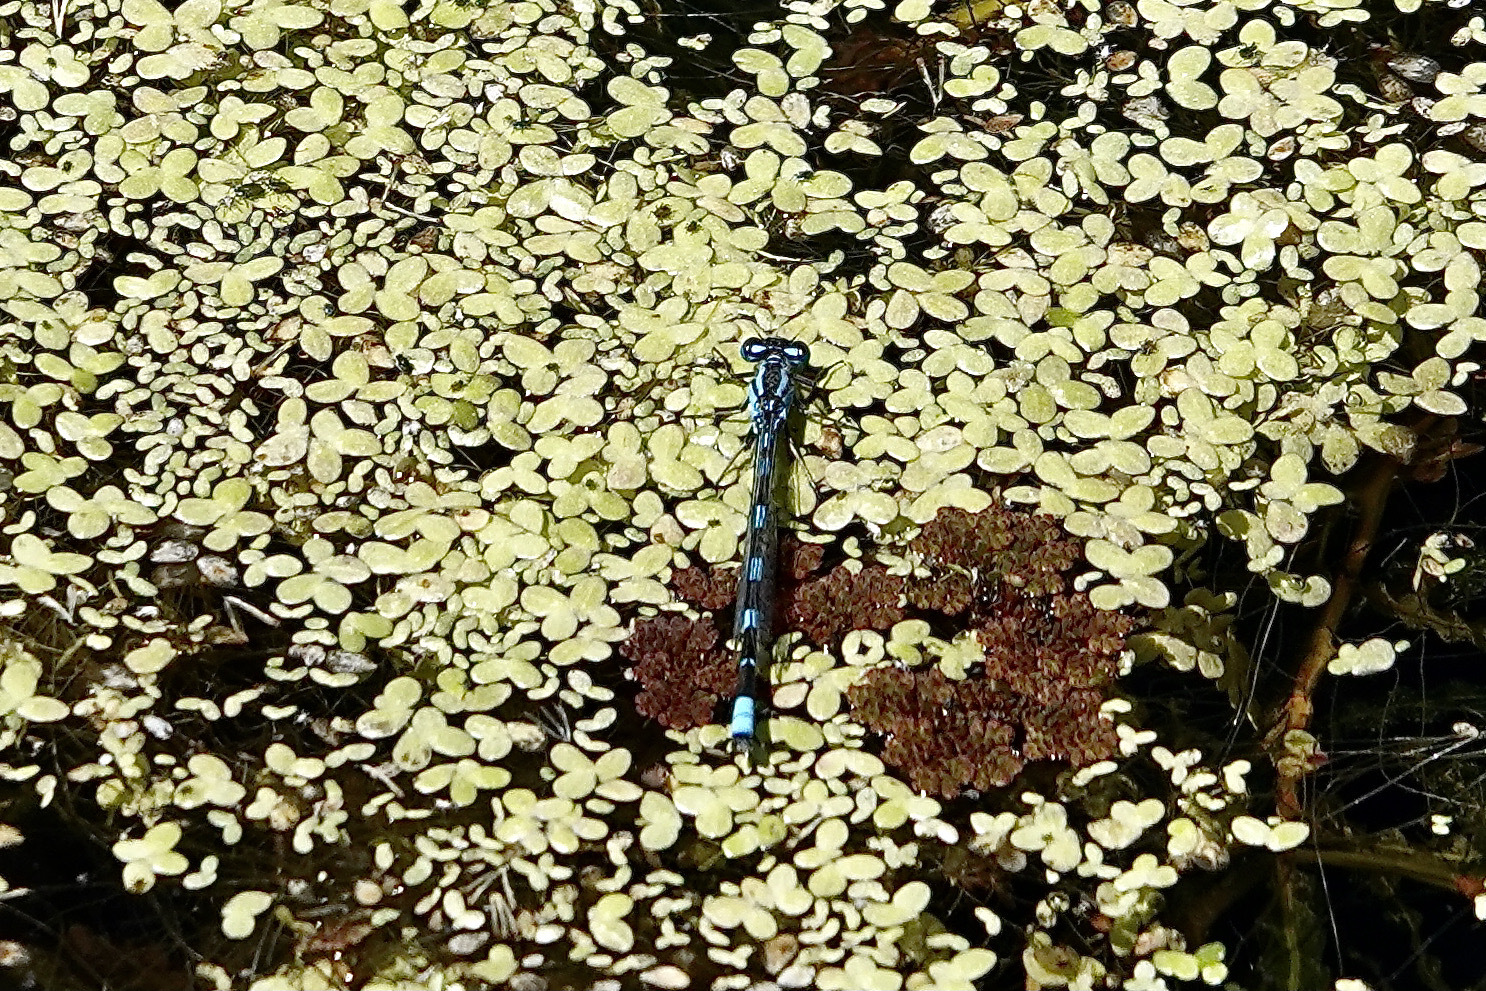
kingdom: Animalia
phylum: Arthropoda
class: Insecta
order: Odonata
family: Coenagrionidae
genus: Enallagma
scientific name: Enallagma carunculatum
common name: Tule bluet
